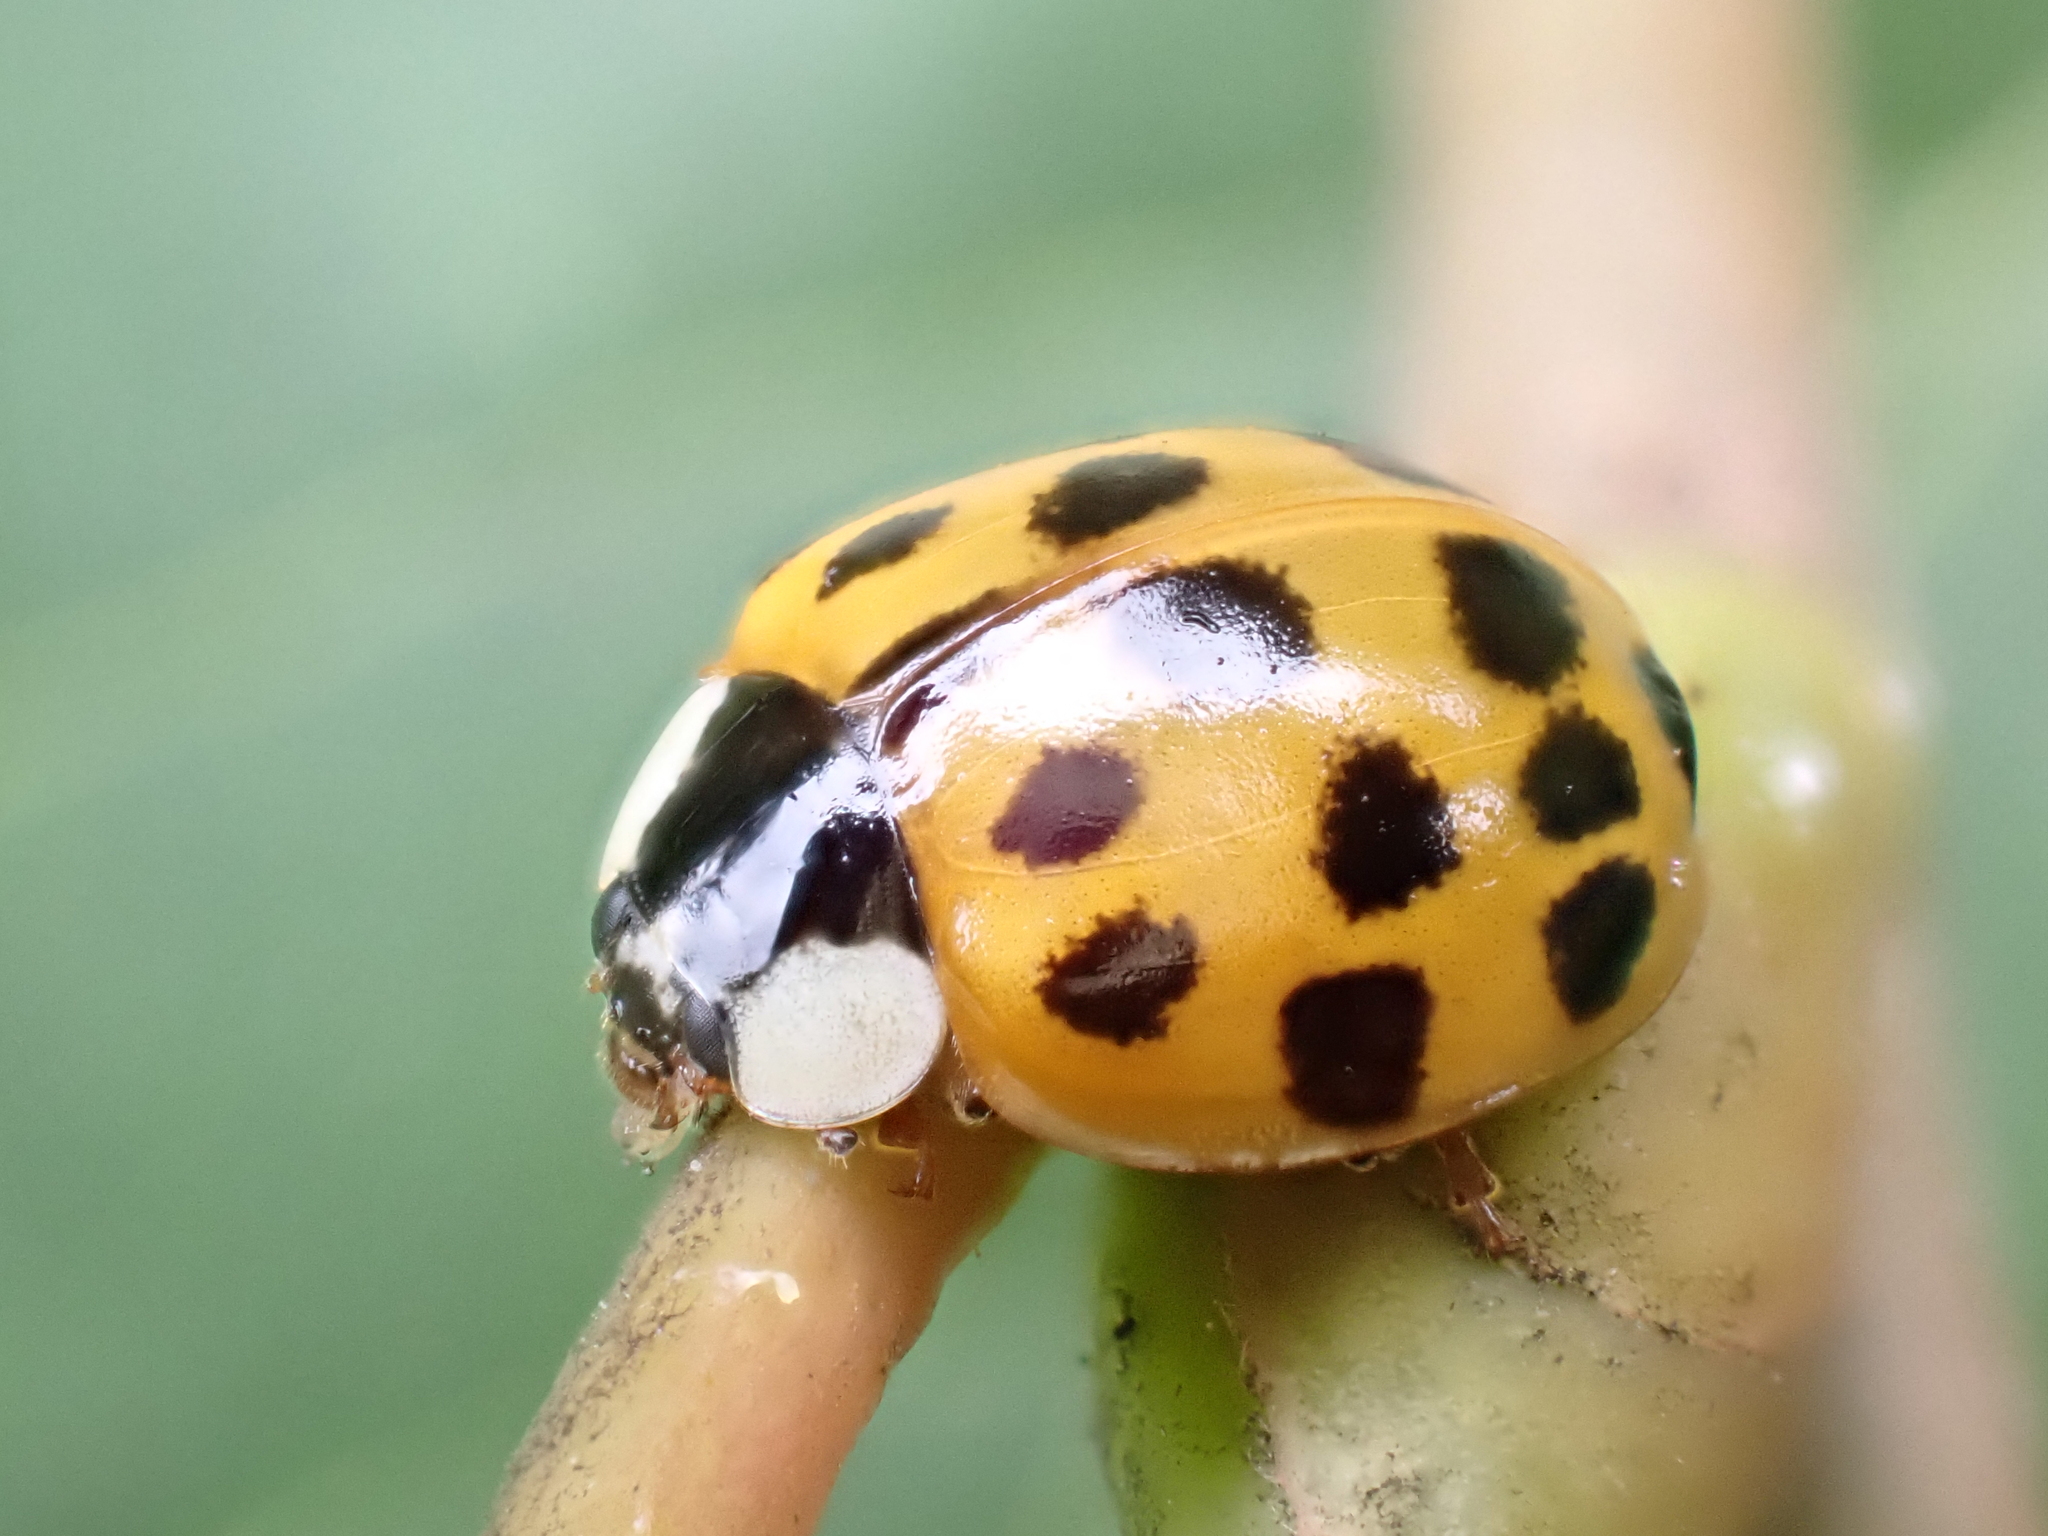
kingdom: Animalia
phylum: Arthropoda
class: Insecta
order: Coleoptera
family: Coccinellidae
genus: Harmonia
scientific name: Harmonia axyridis
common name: Harlequin ladybird
